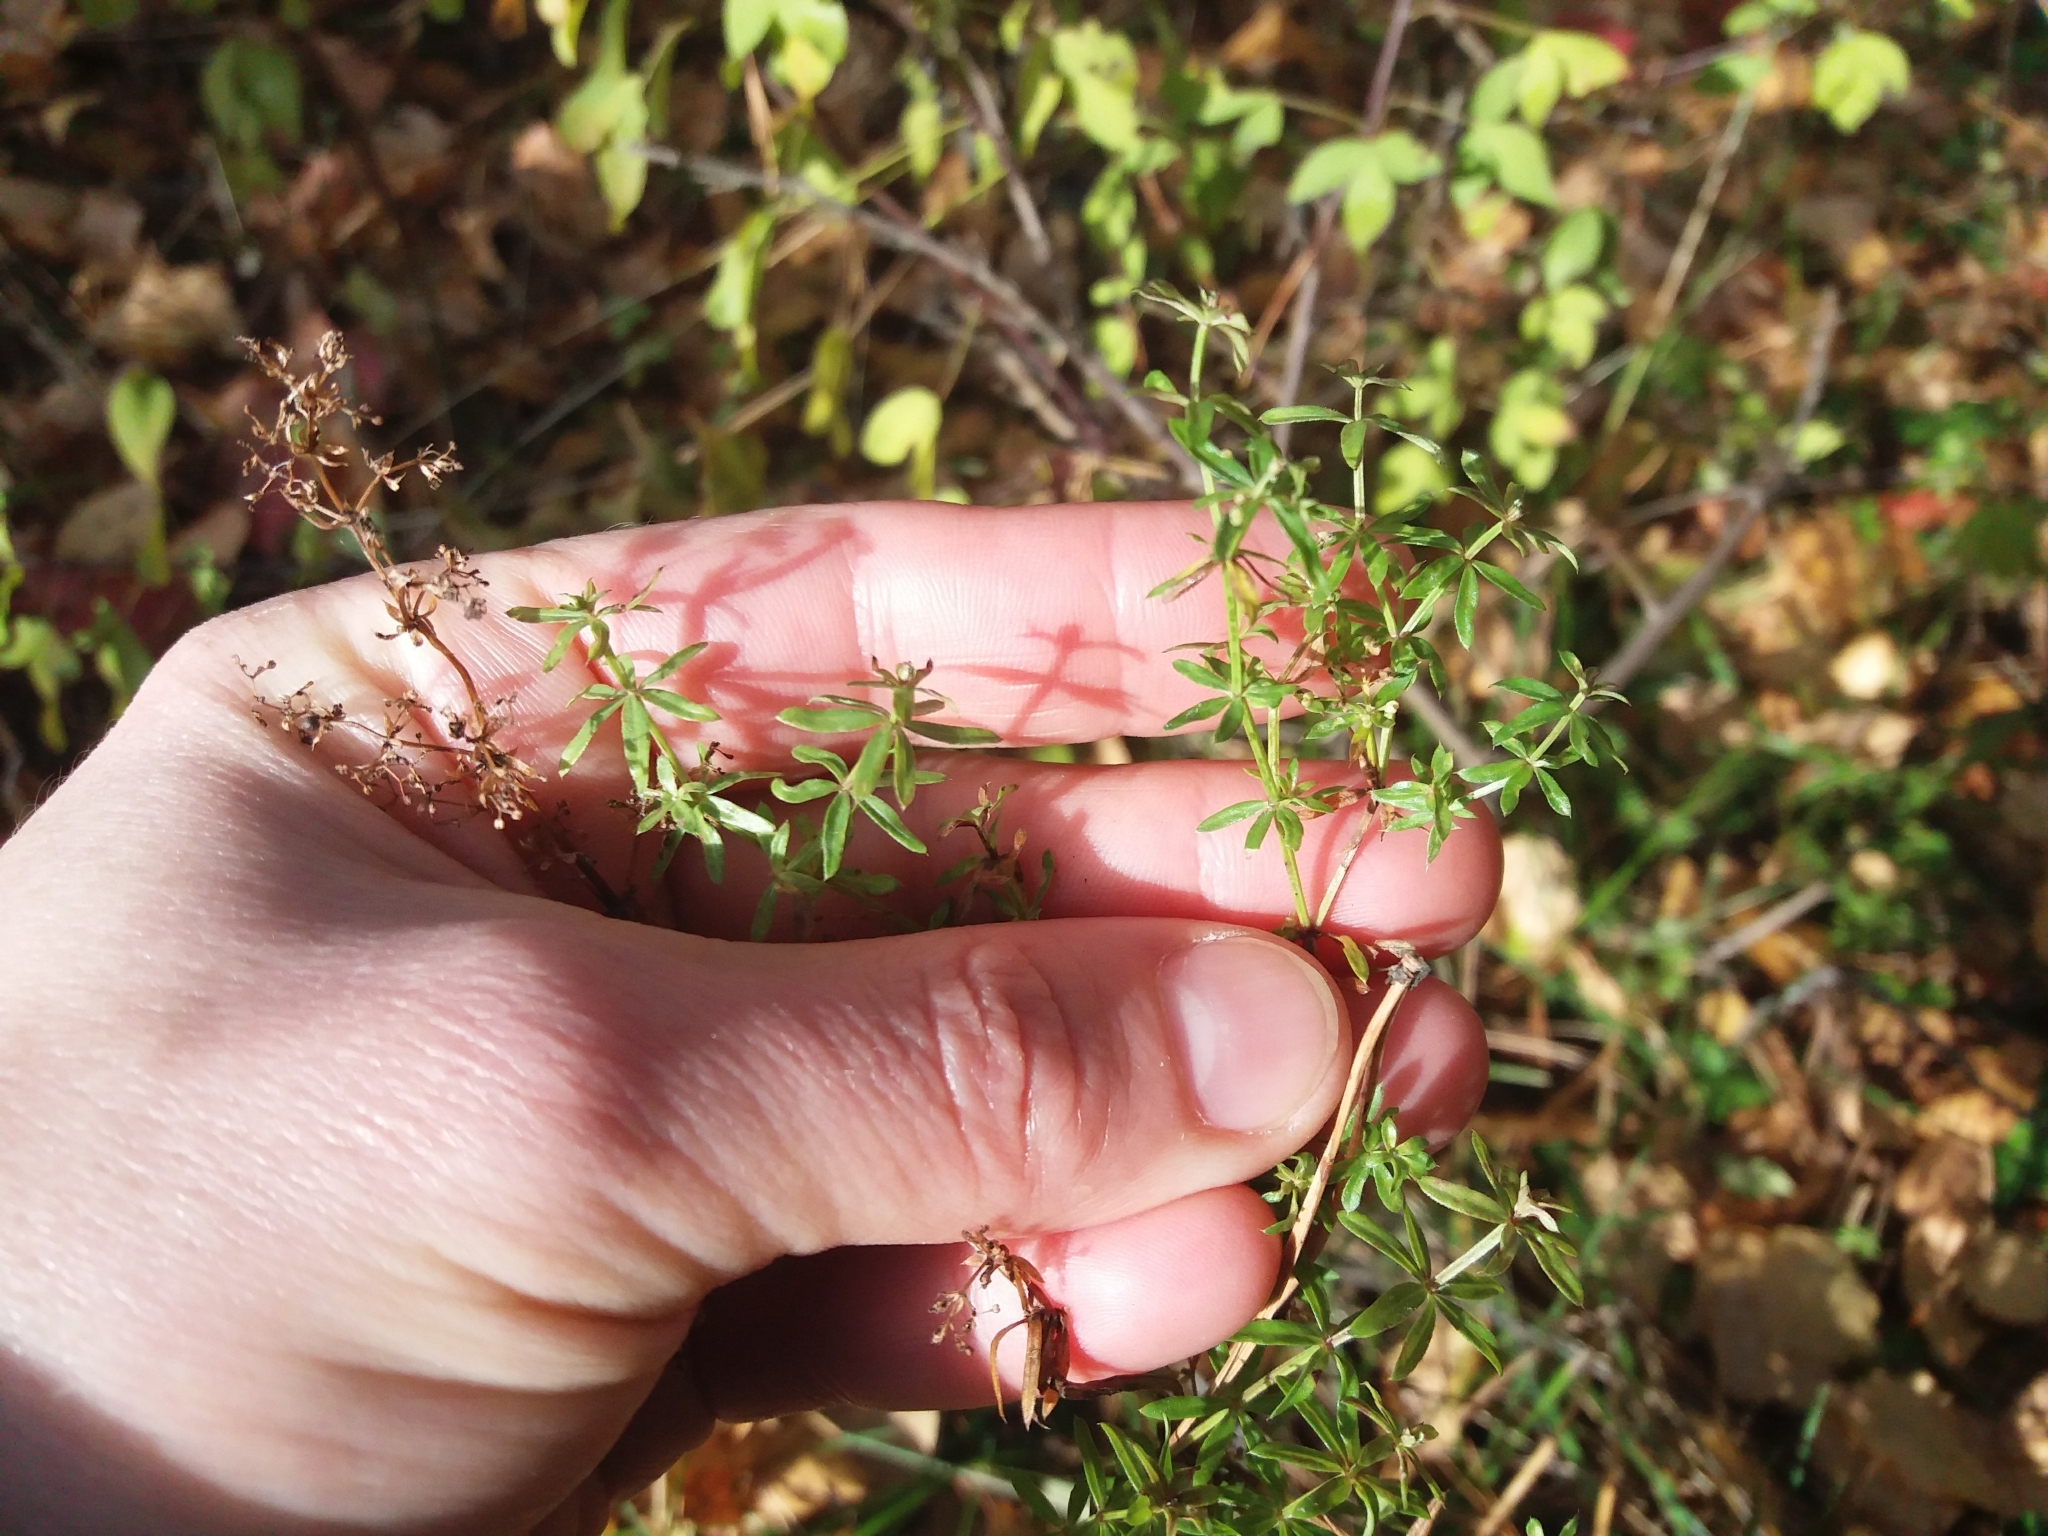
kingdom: Plantae
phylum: Tracheophyta
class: Magnoliopsida
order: Gentianales
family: Rubiaceae
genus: Galium
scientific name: Galium mollugo
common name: Hedge bedstraw
